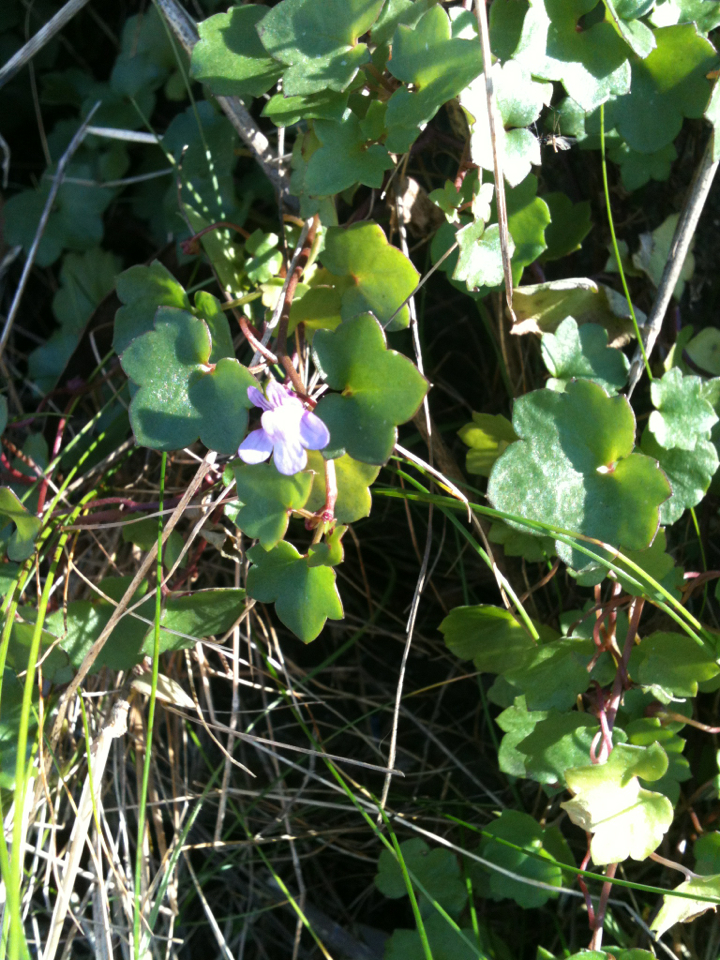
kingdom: Plantae
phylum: Tracheophyta
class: Magnoliopsida
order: Lamiales
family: Plantaginaceae
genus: Cymbalaria
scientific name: Cymbalaria muralis
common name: Ivy-leaved toadflax
